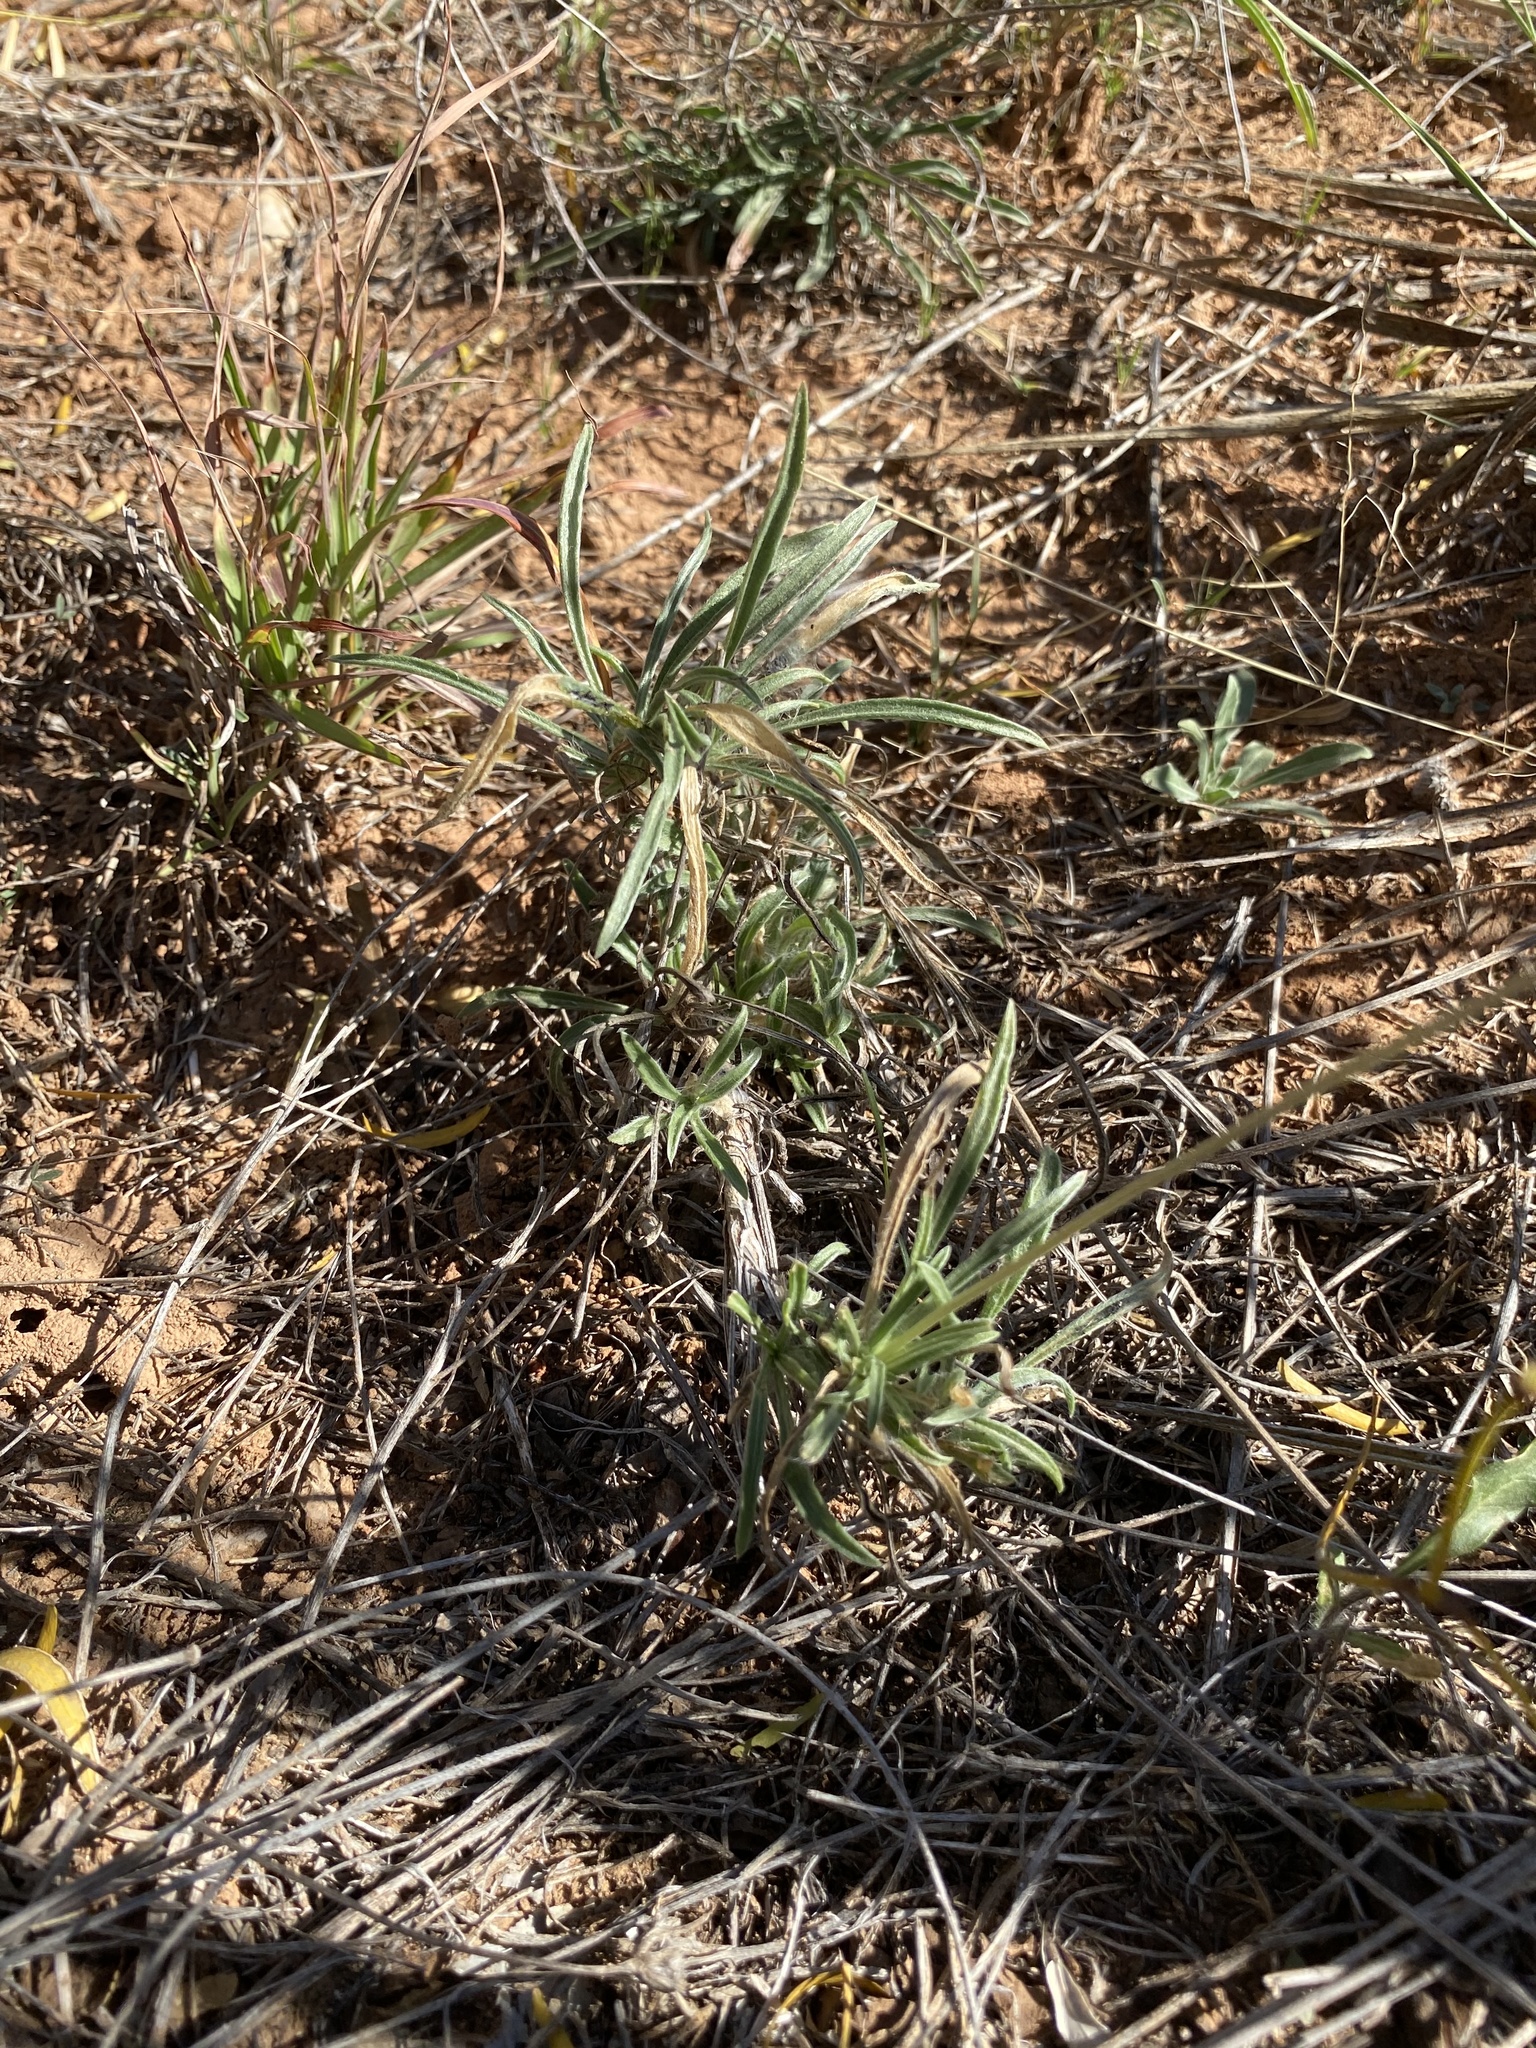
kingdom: Plantae
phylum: Tracheophyta
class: Magnoliopsida
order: Asterales
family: Asteraceae
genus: Tetraneuris
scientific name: Tetraneuris scaposa
